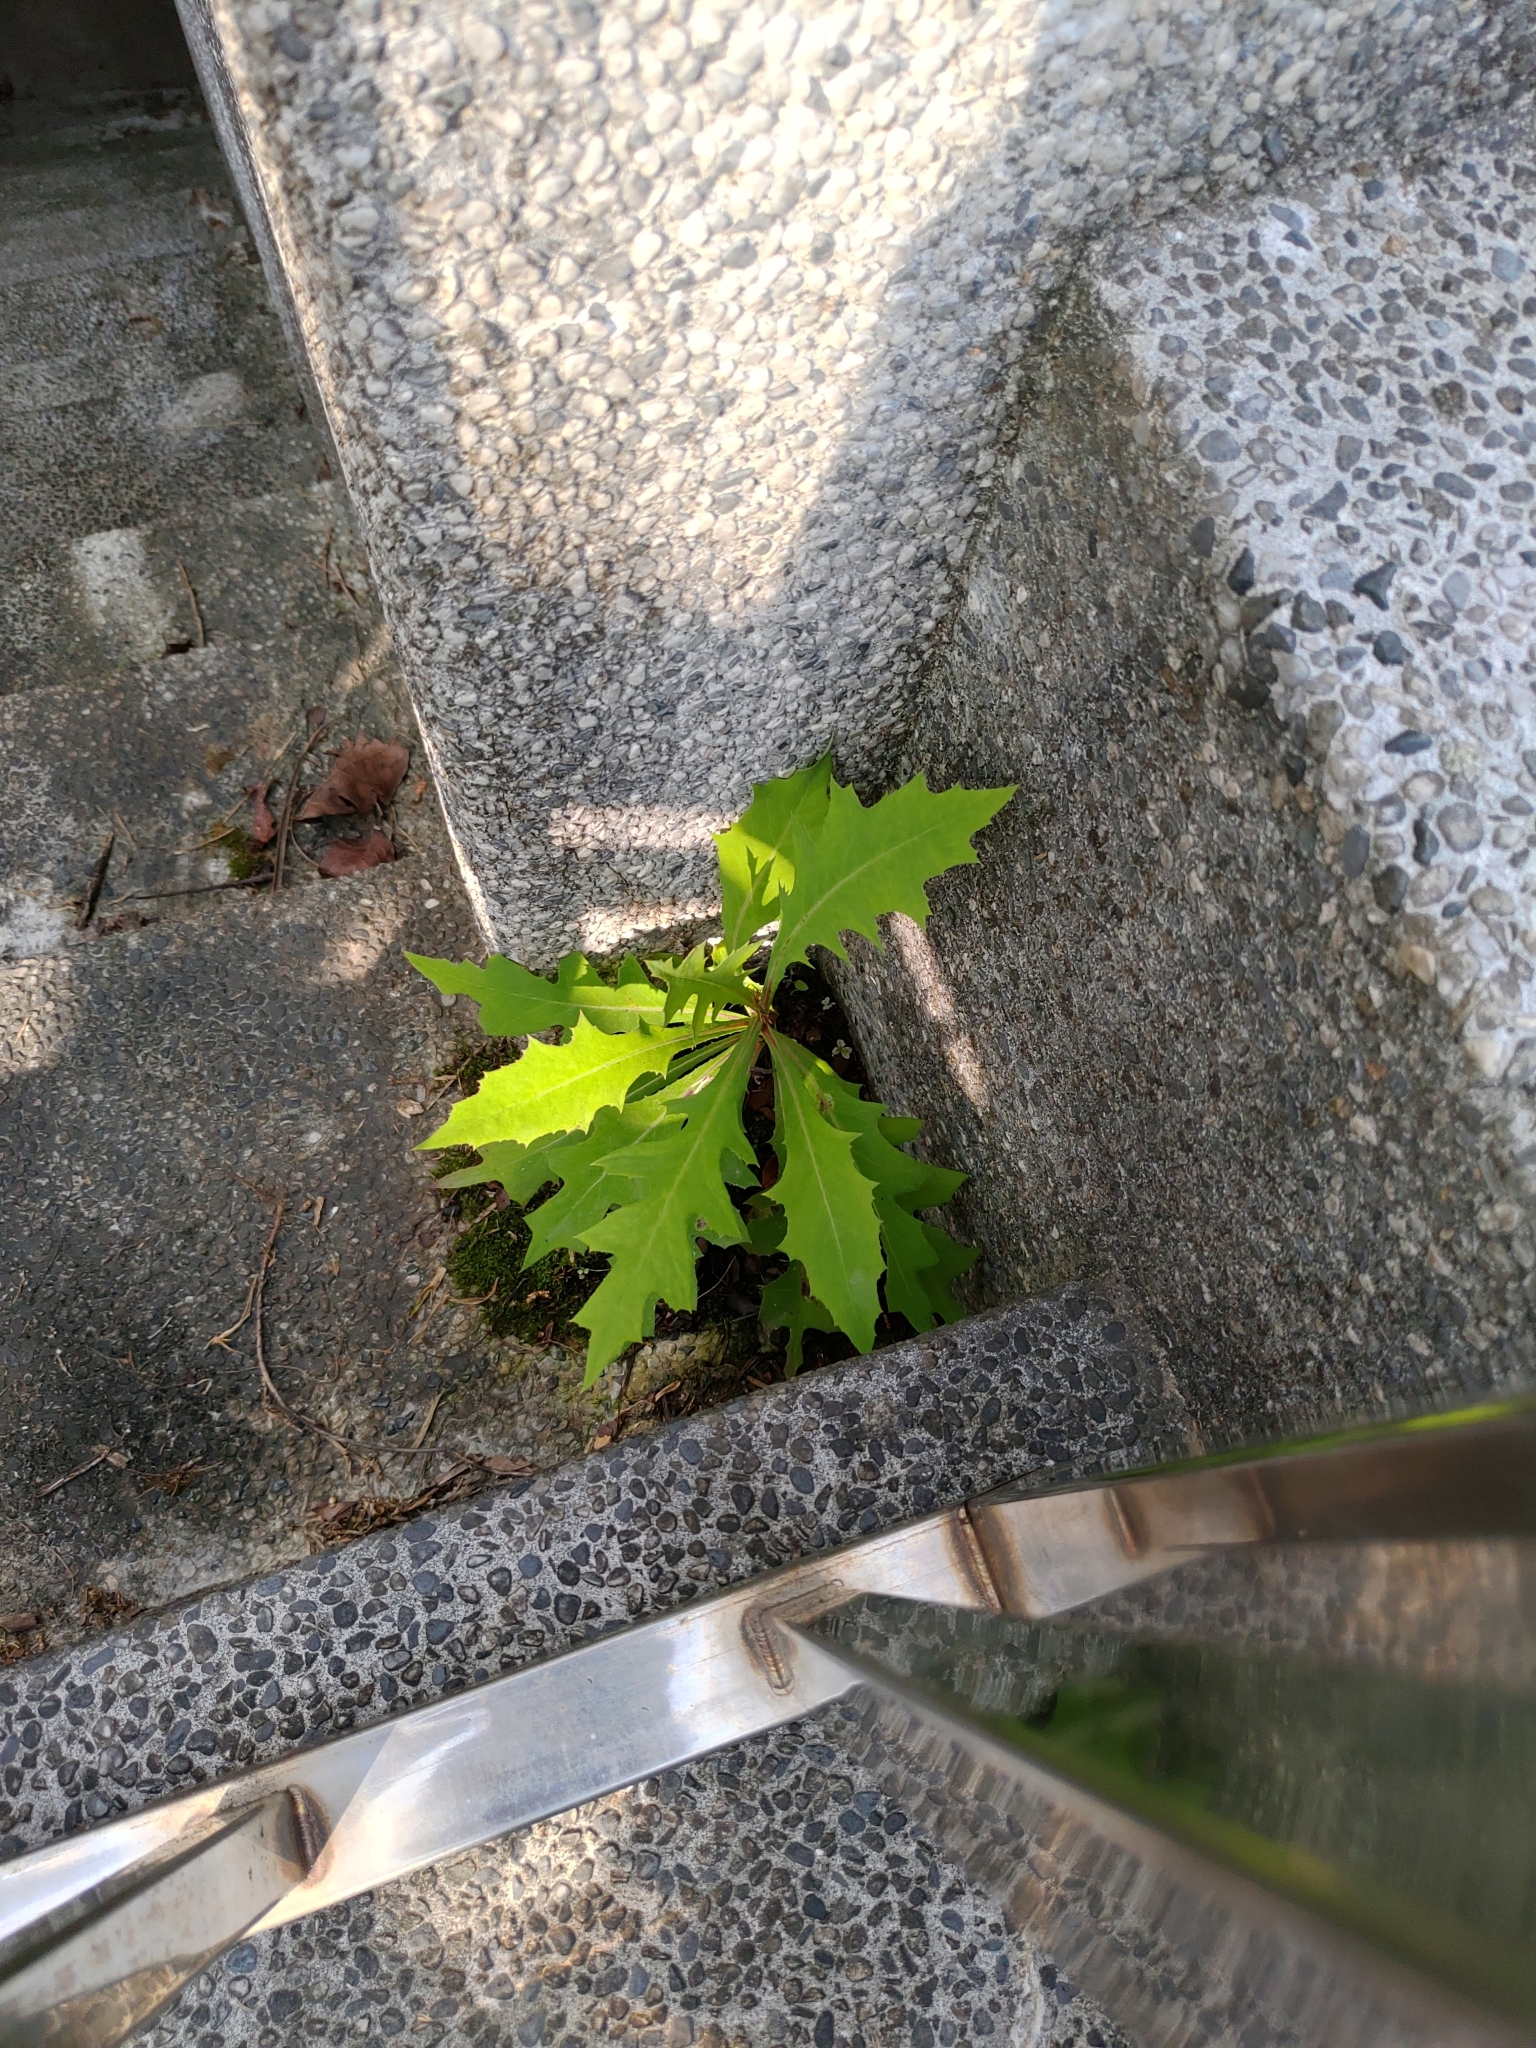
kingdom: Plantae
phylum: Tracheophyta
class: Magnoliopsida
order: Asterales
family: Asteraceae
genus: Lactuca
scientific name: Lactuca indica
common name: Wild lettuce
